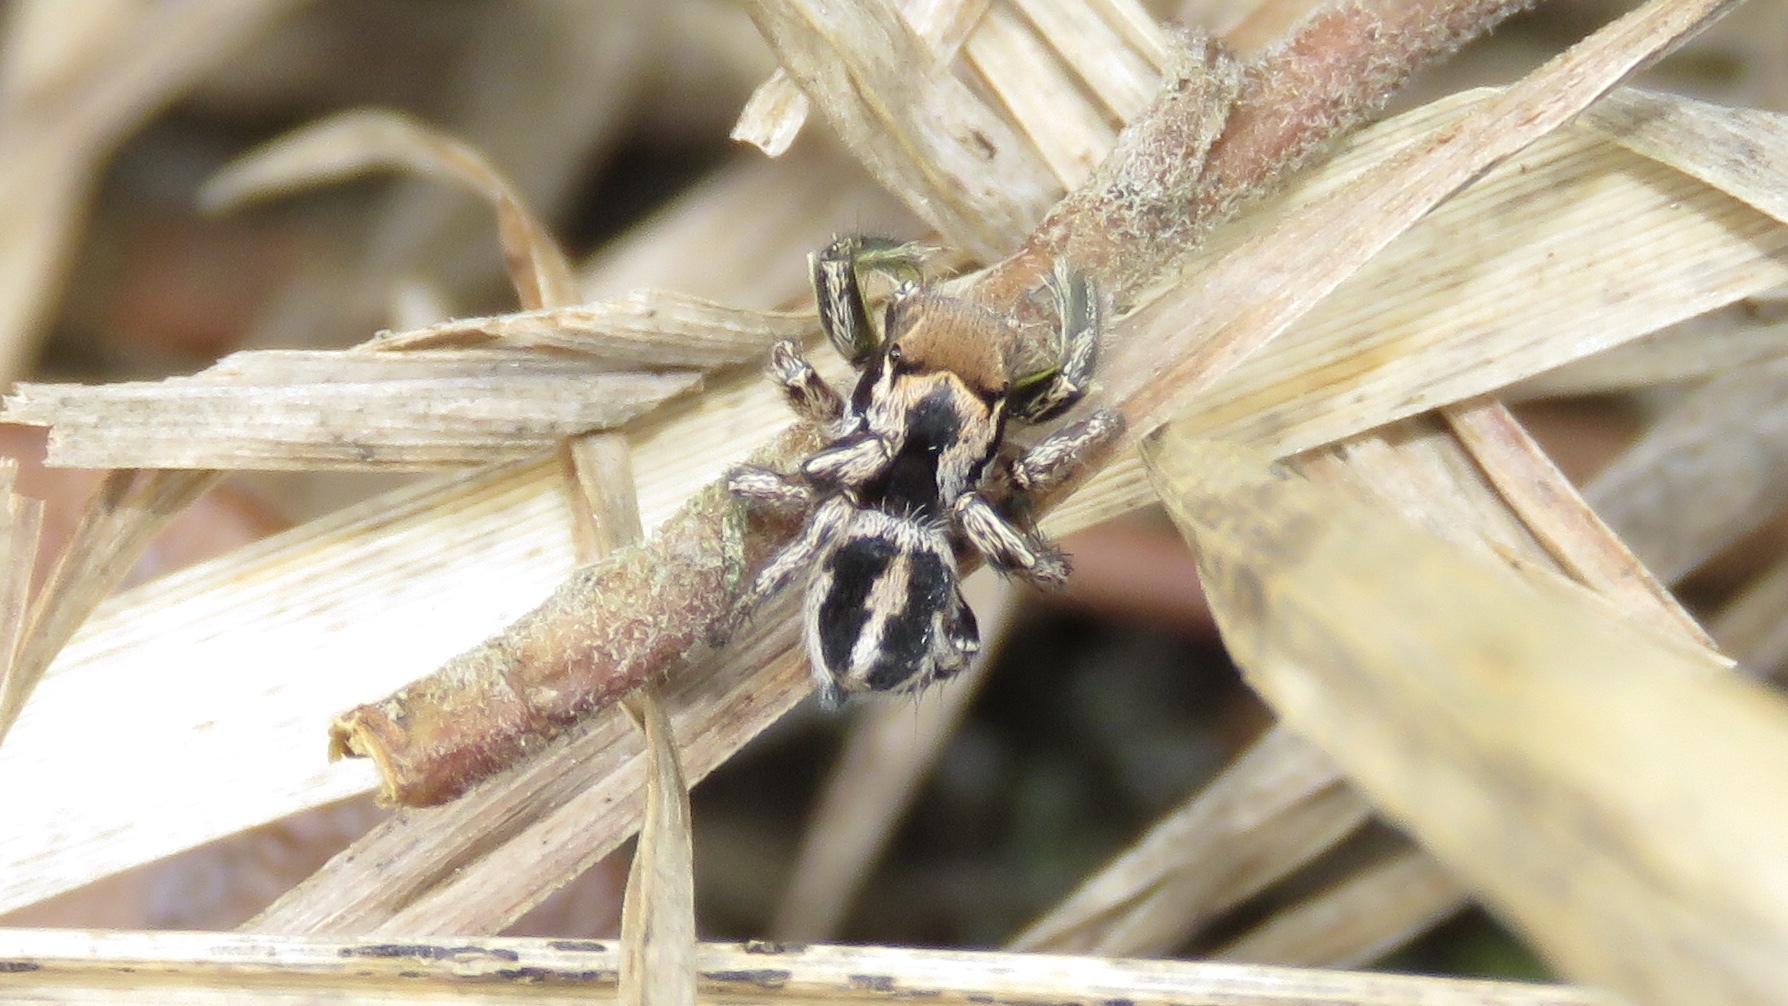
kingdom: Animalia
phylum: Arthropoda
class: Arachnida
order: Araneae
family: Salticidae
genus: Habronattus
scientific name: Habronattus viridipes
